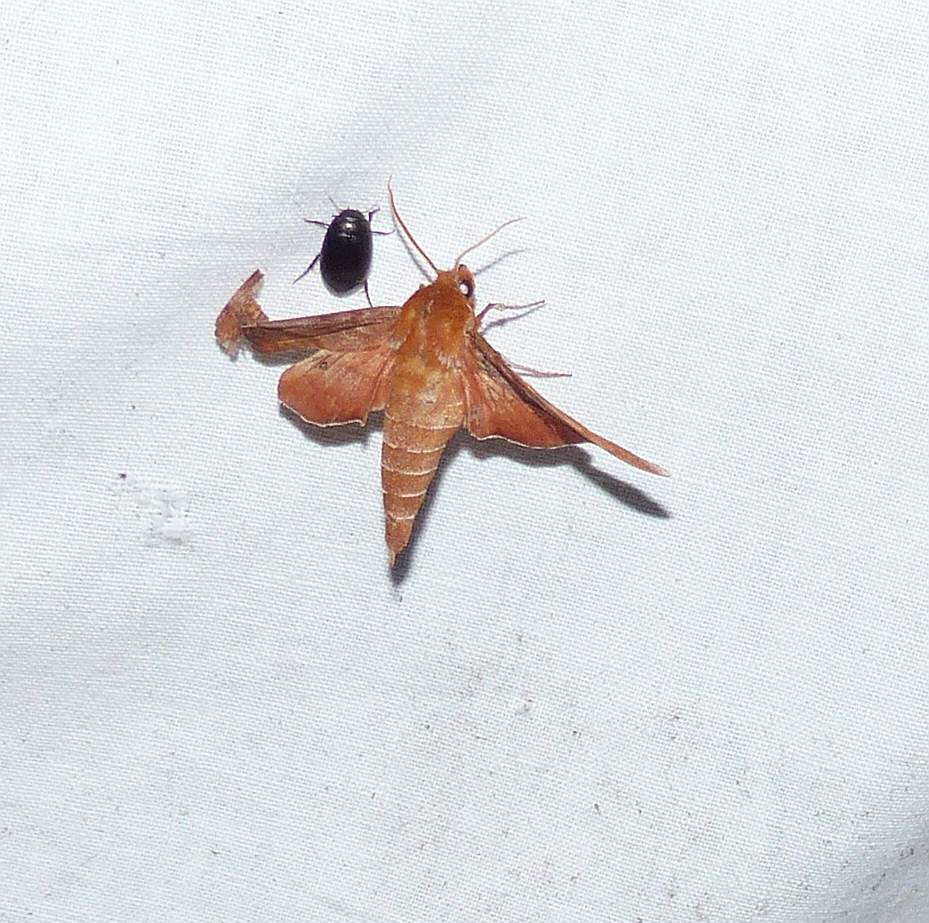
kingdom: Animalia
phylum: Arthropoda
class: Insecta
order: Lepidoptera
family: Sphingidae
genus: Darapsa
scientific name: Darapsa choerilus
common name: Azalea sphinx
